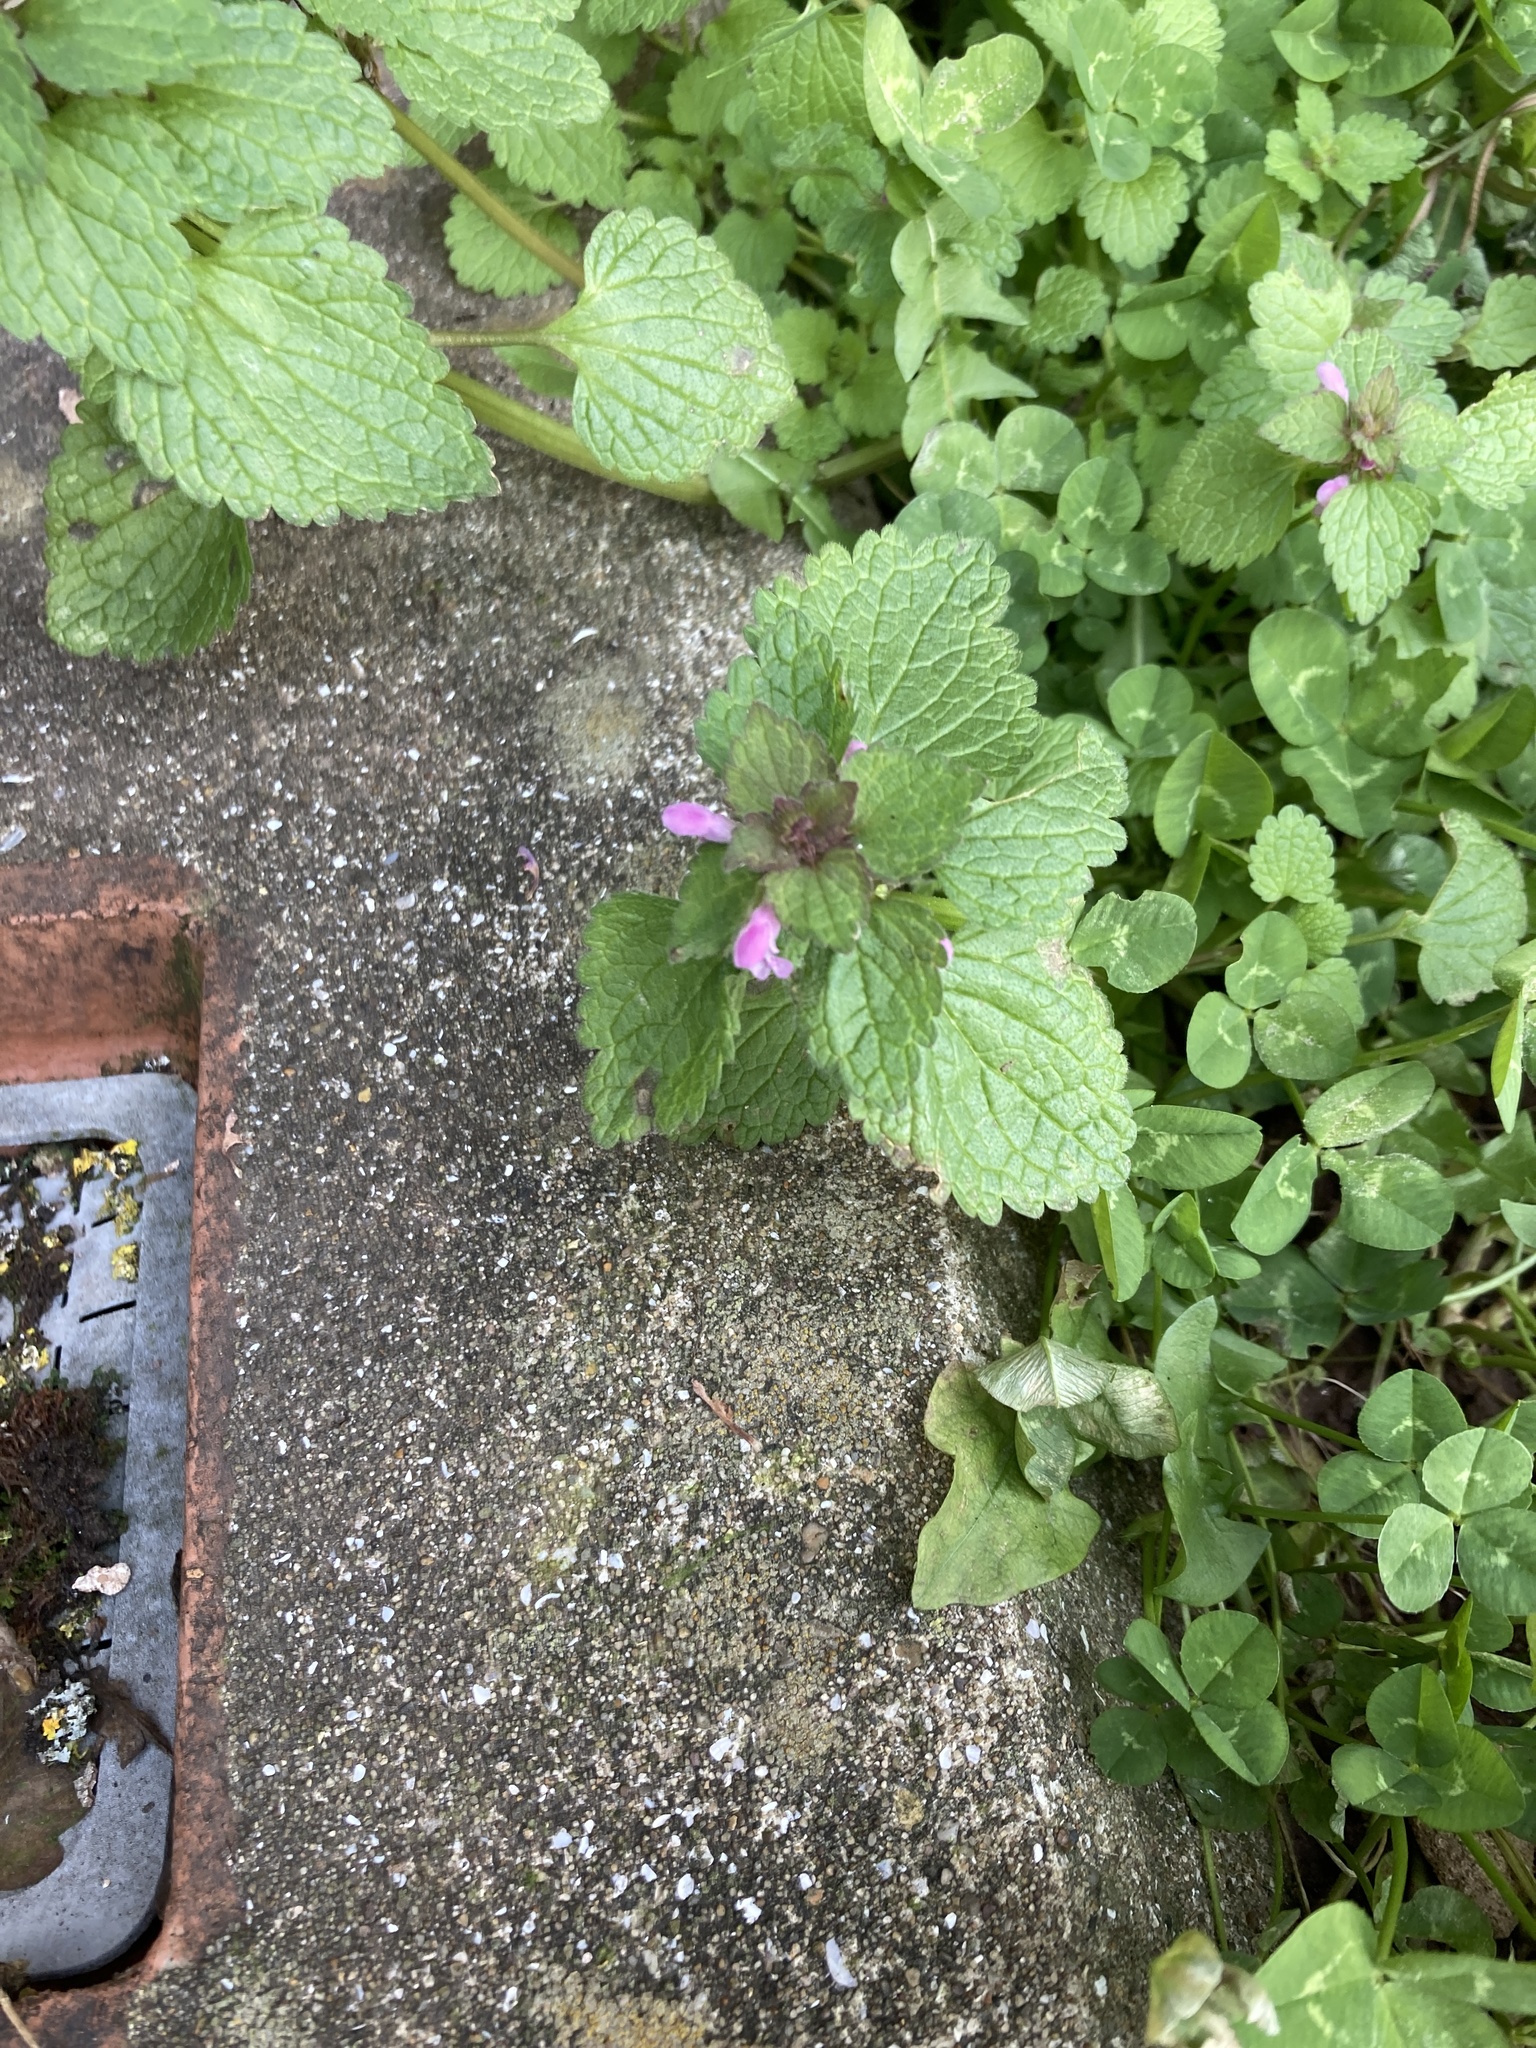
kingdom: Plantae
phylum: Tracheophyta
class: Magnoliopsida
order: Lamiales
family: Lamiaceae
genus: Lamium
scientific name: Lamium purpureum
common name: Red dead-nettle
